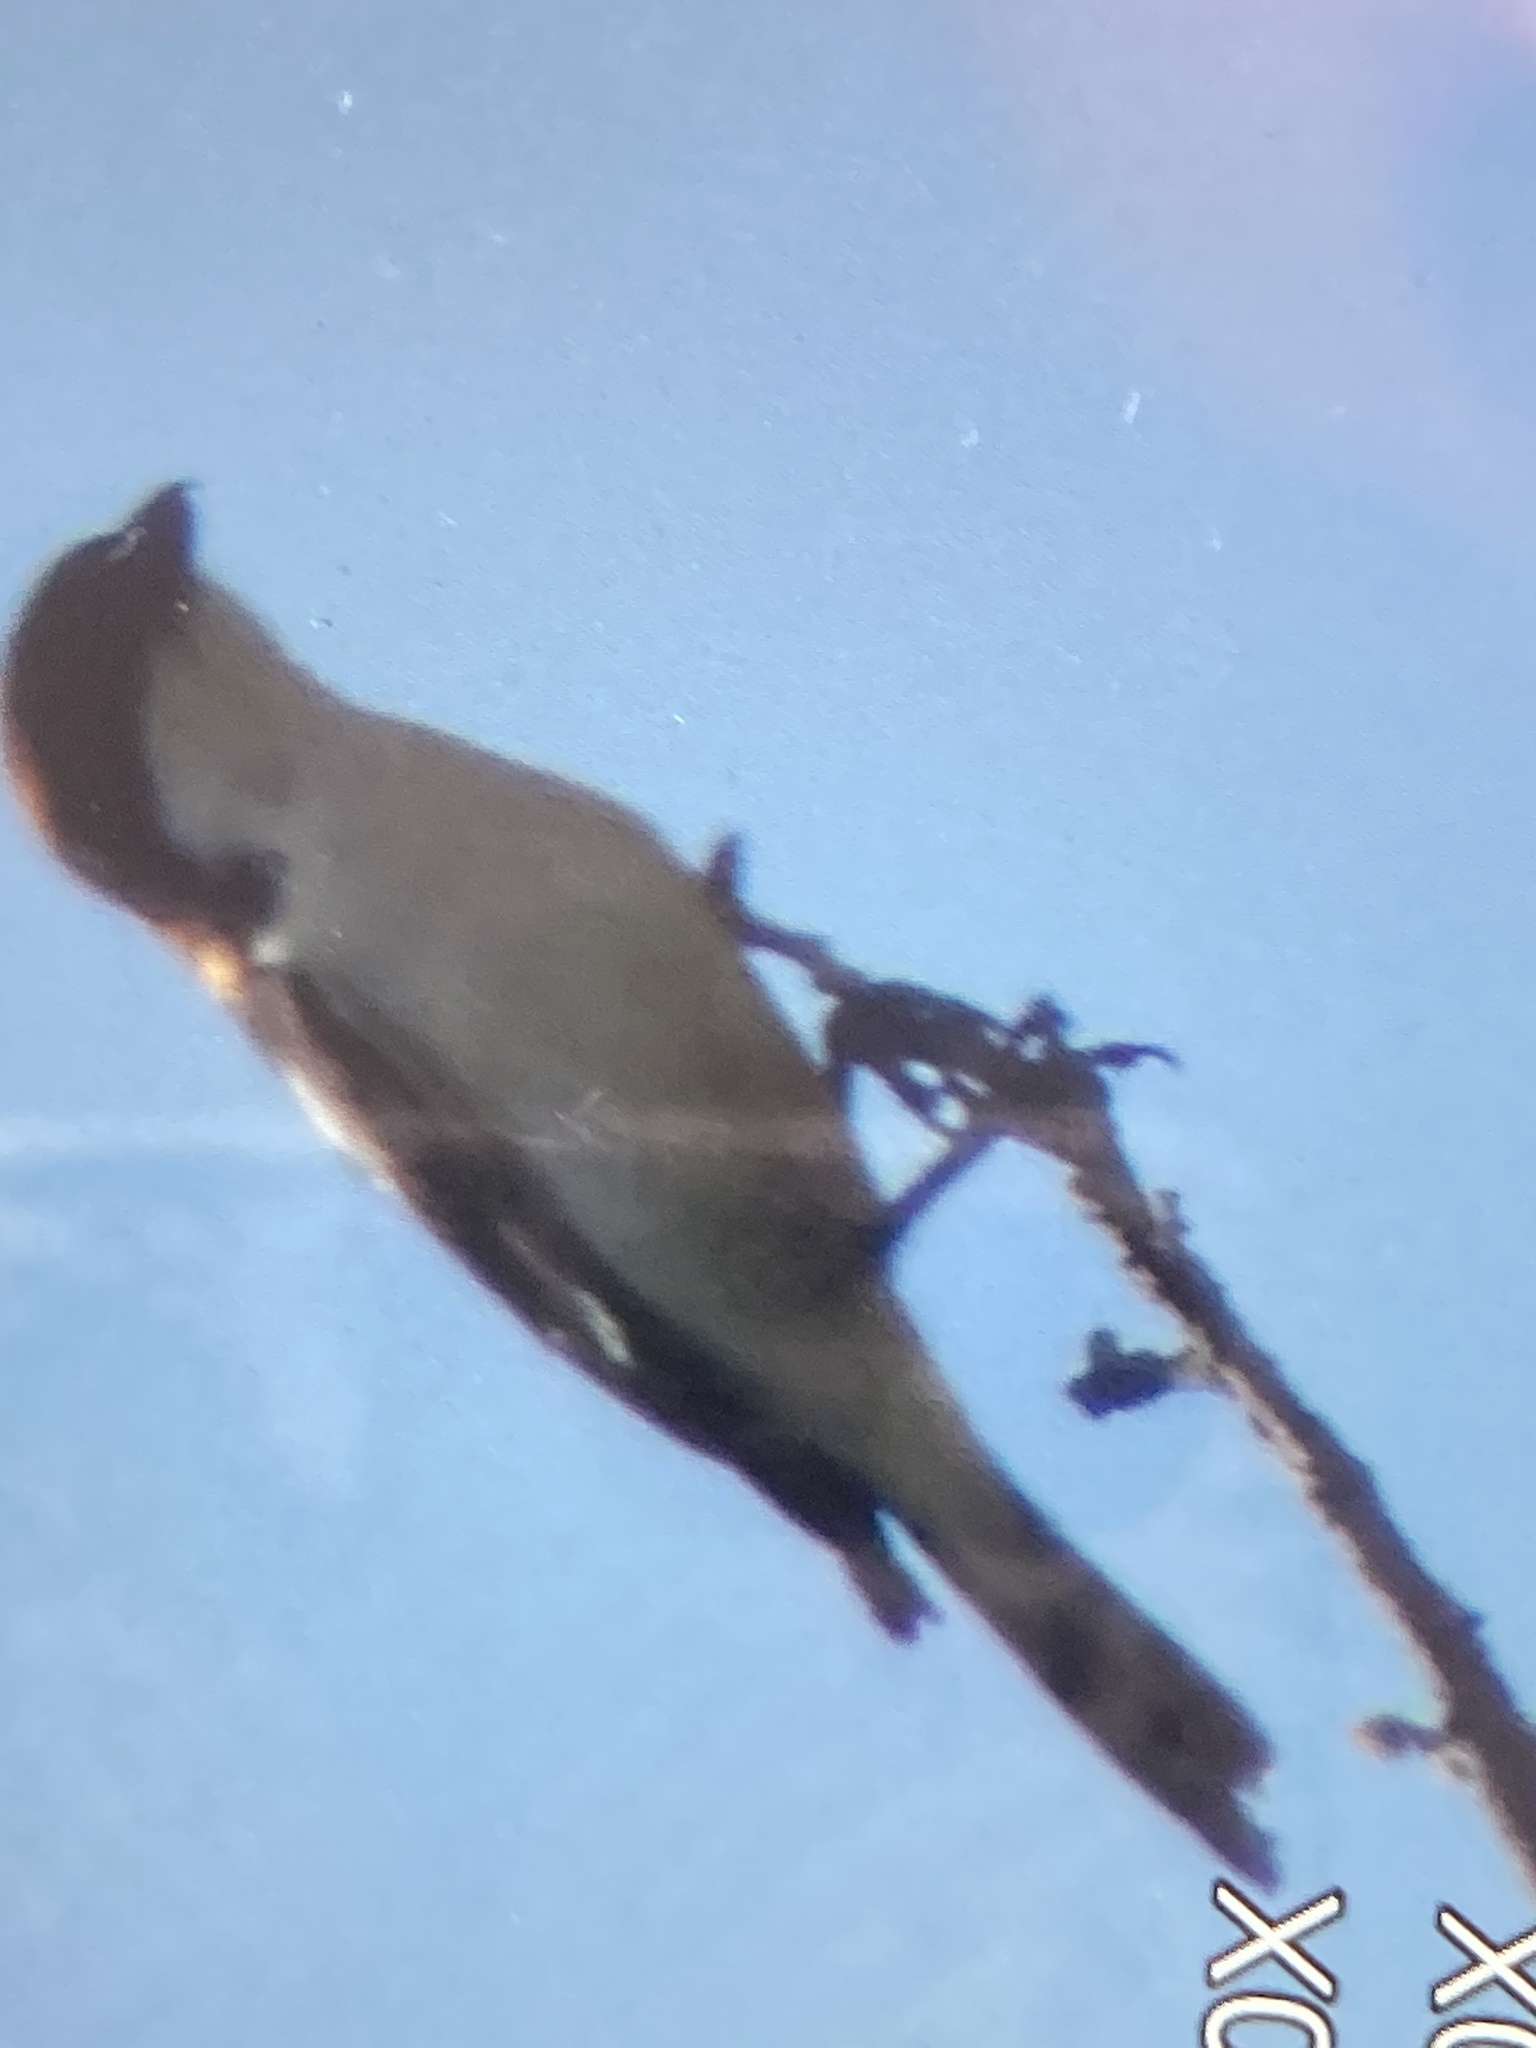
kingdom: Animalia
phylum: Chordata
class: Aves
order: Passeriformes
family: Laniidae
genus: Lanius
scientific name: Lanius senator
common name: Woodchat shrike
